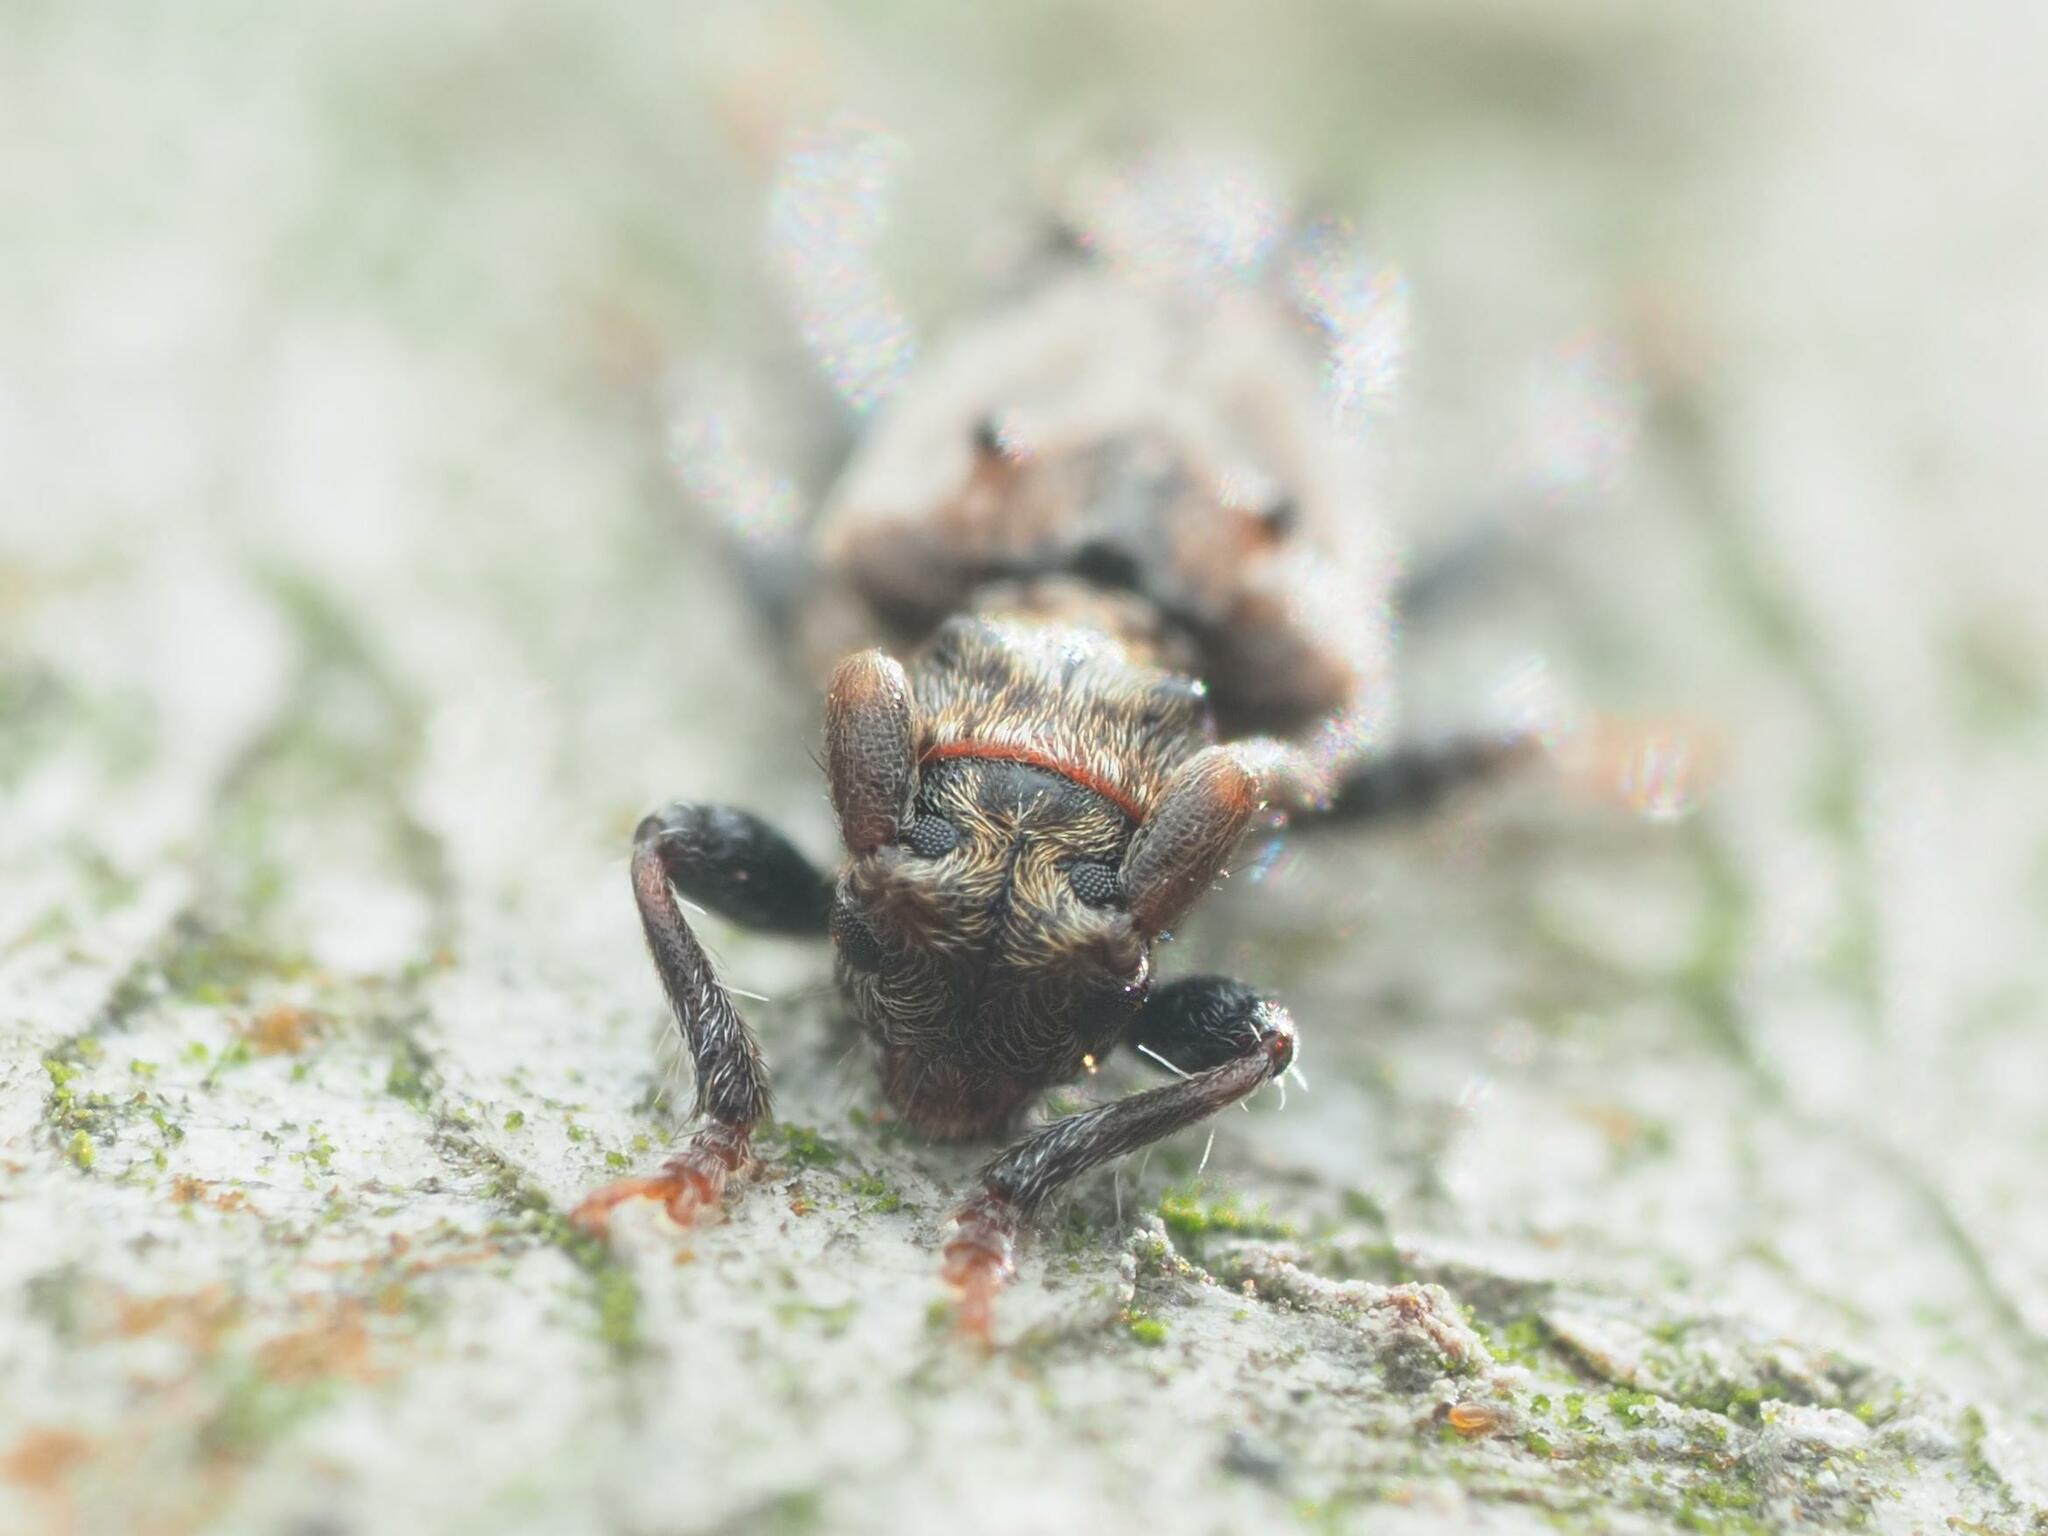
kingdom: Animalia
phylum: Arthropoda
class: Insecta
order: Coleoptera
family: Cerambycidae
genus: Pogonocherus
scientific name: Pogonocherus hispidus
